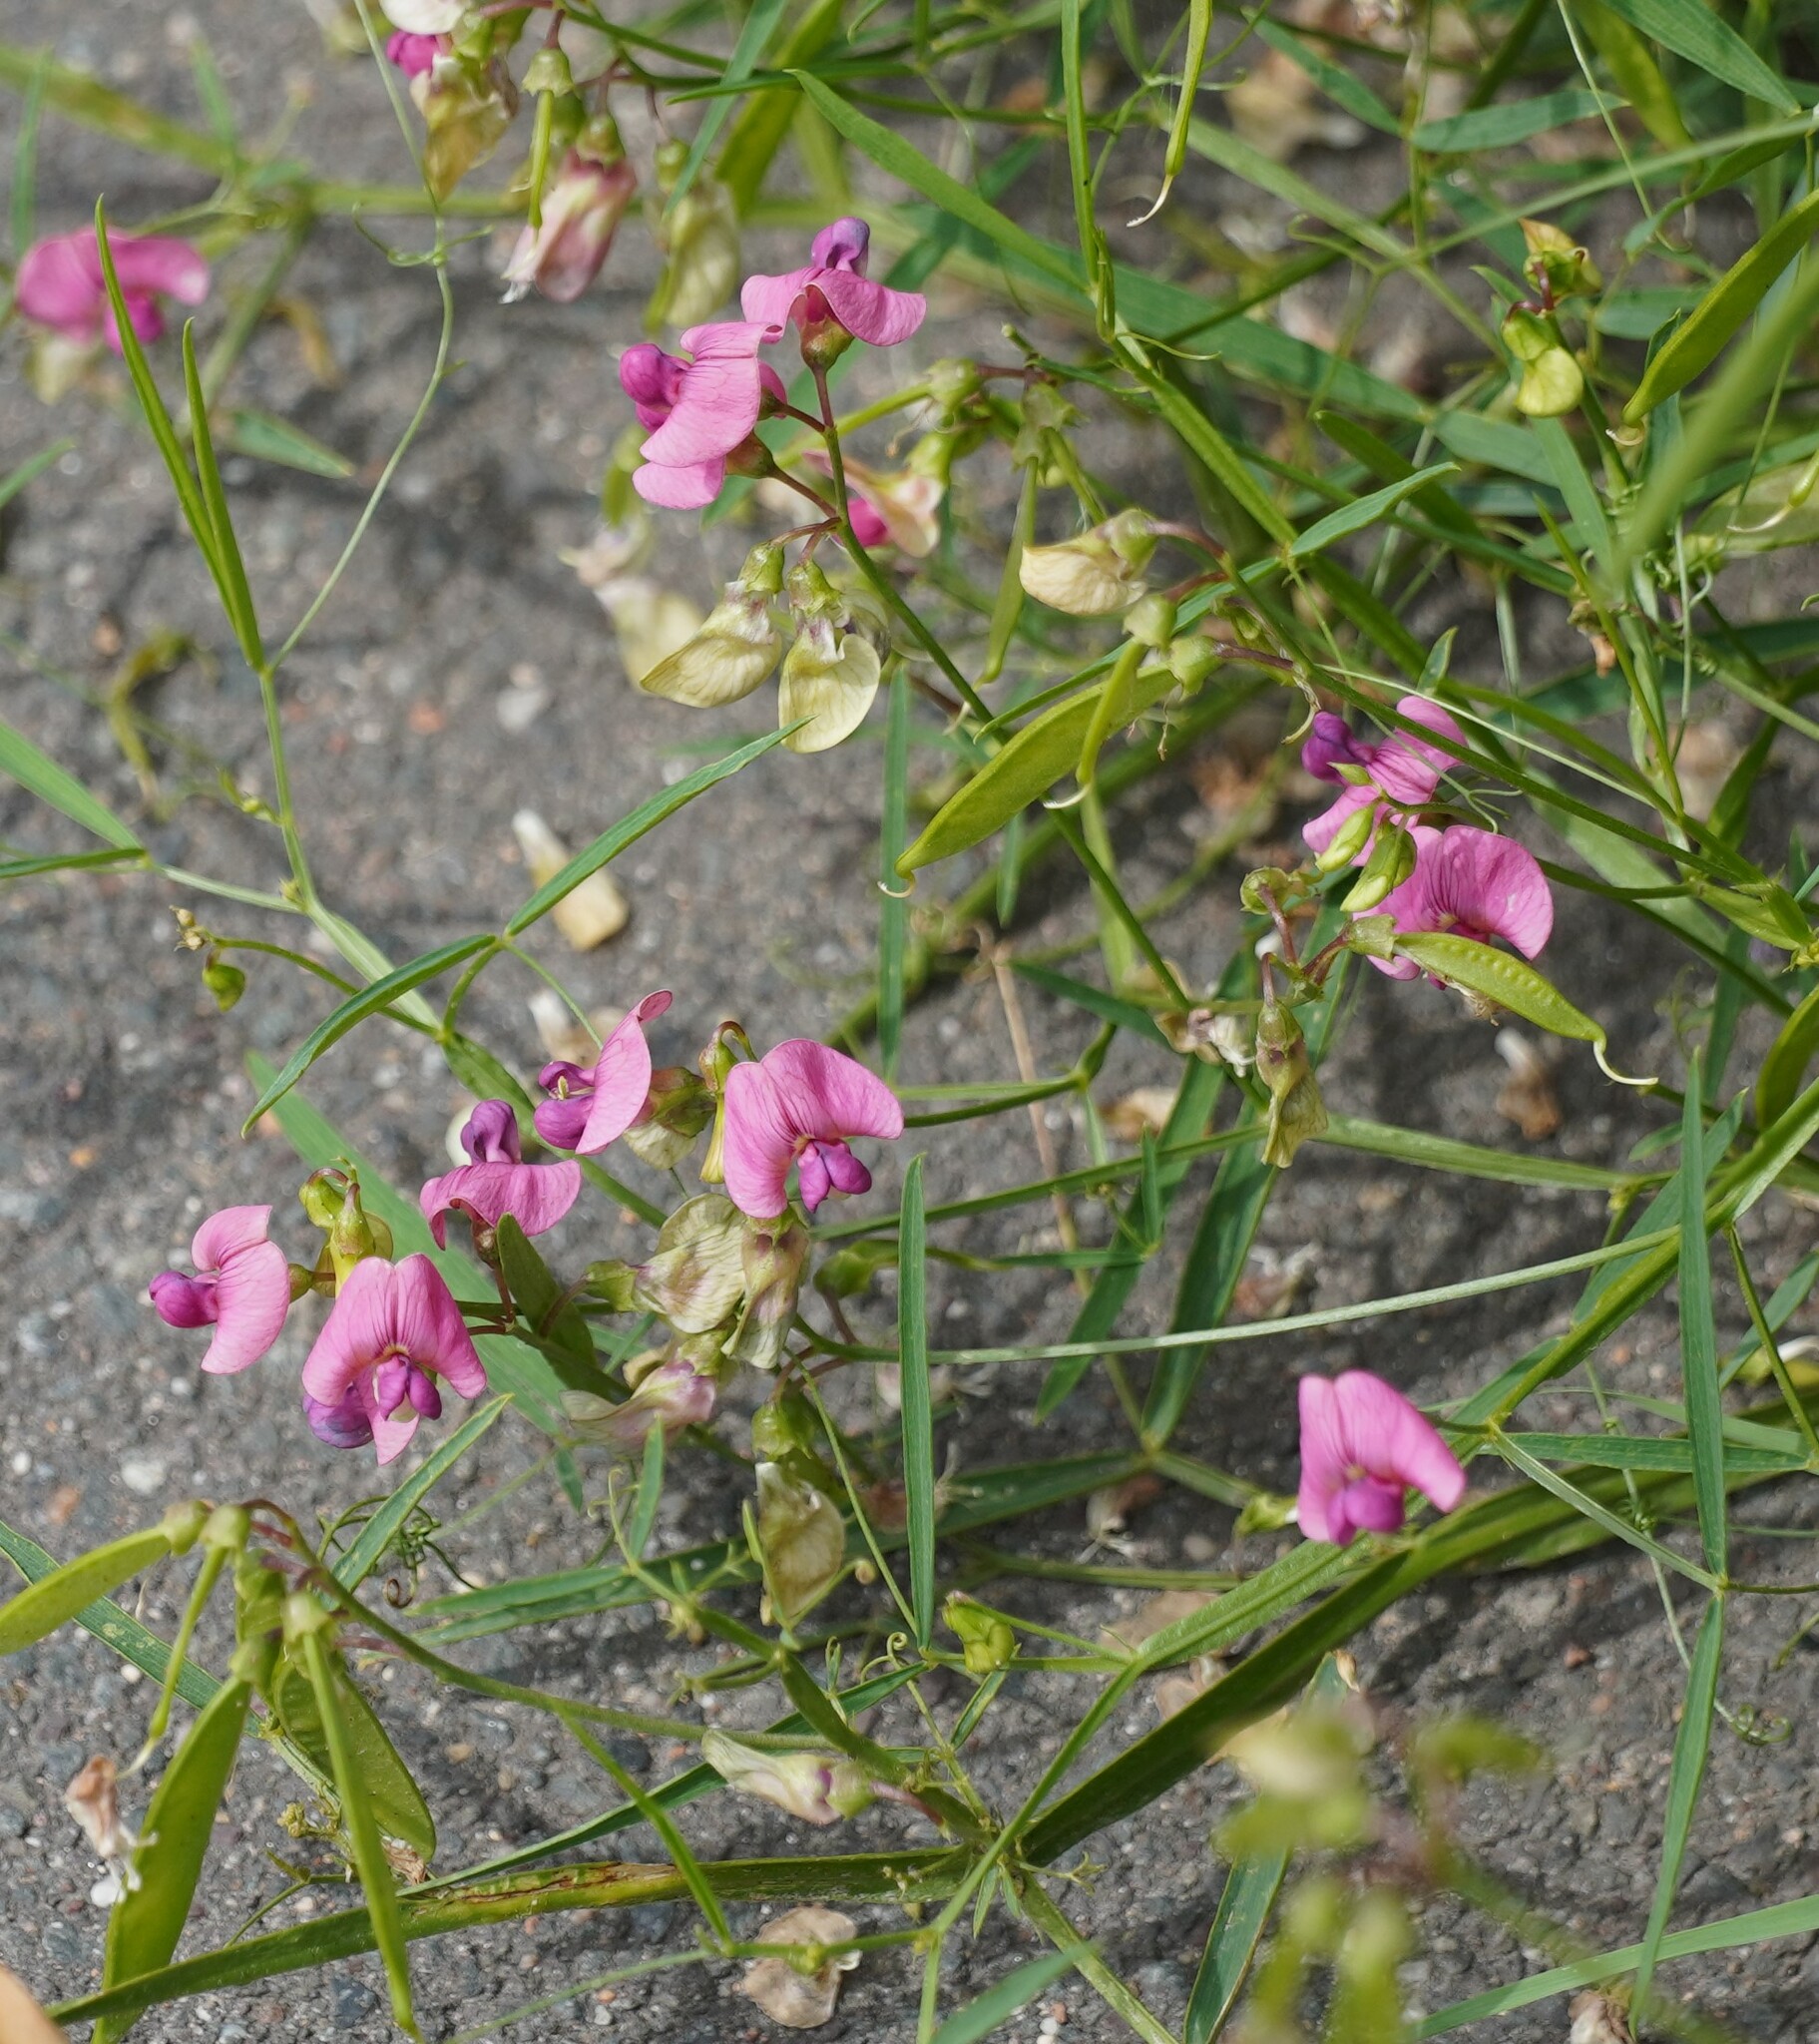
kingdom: Plantae
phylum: Tracheophyta
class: Magnoliopsida
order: Fabales
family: Fabaceae
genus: Lathyrus
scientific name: Lathyrus sylvestris
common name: Flat pea
